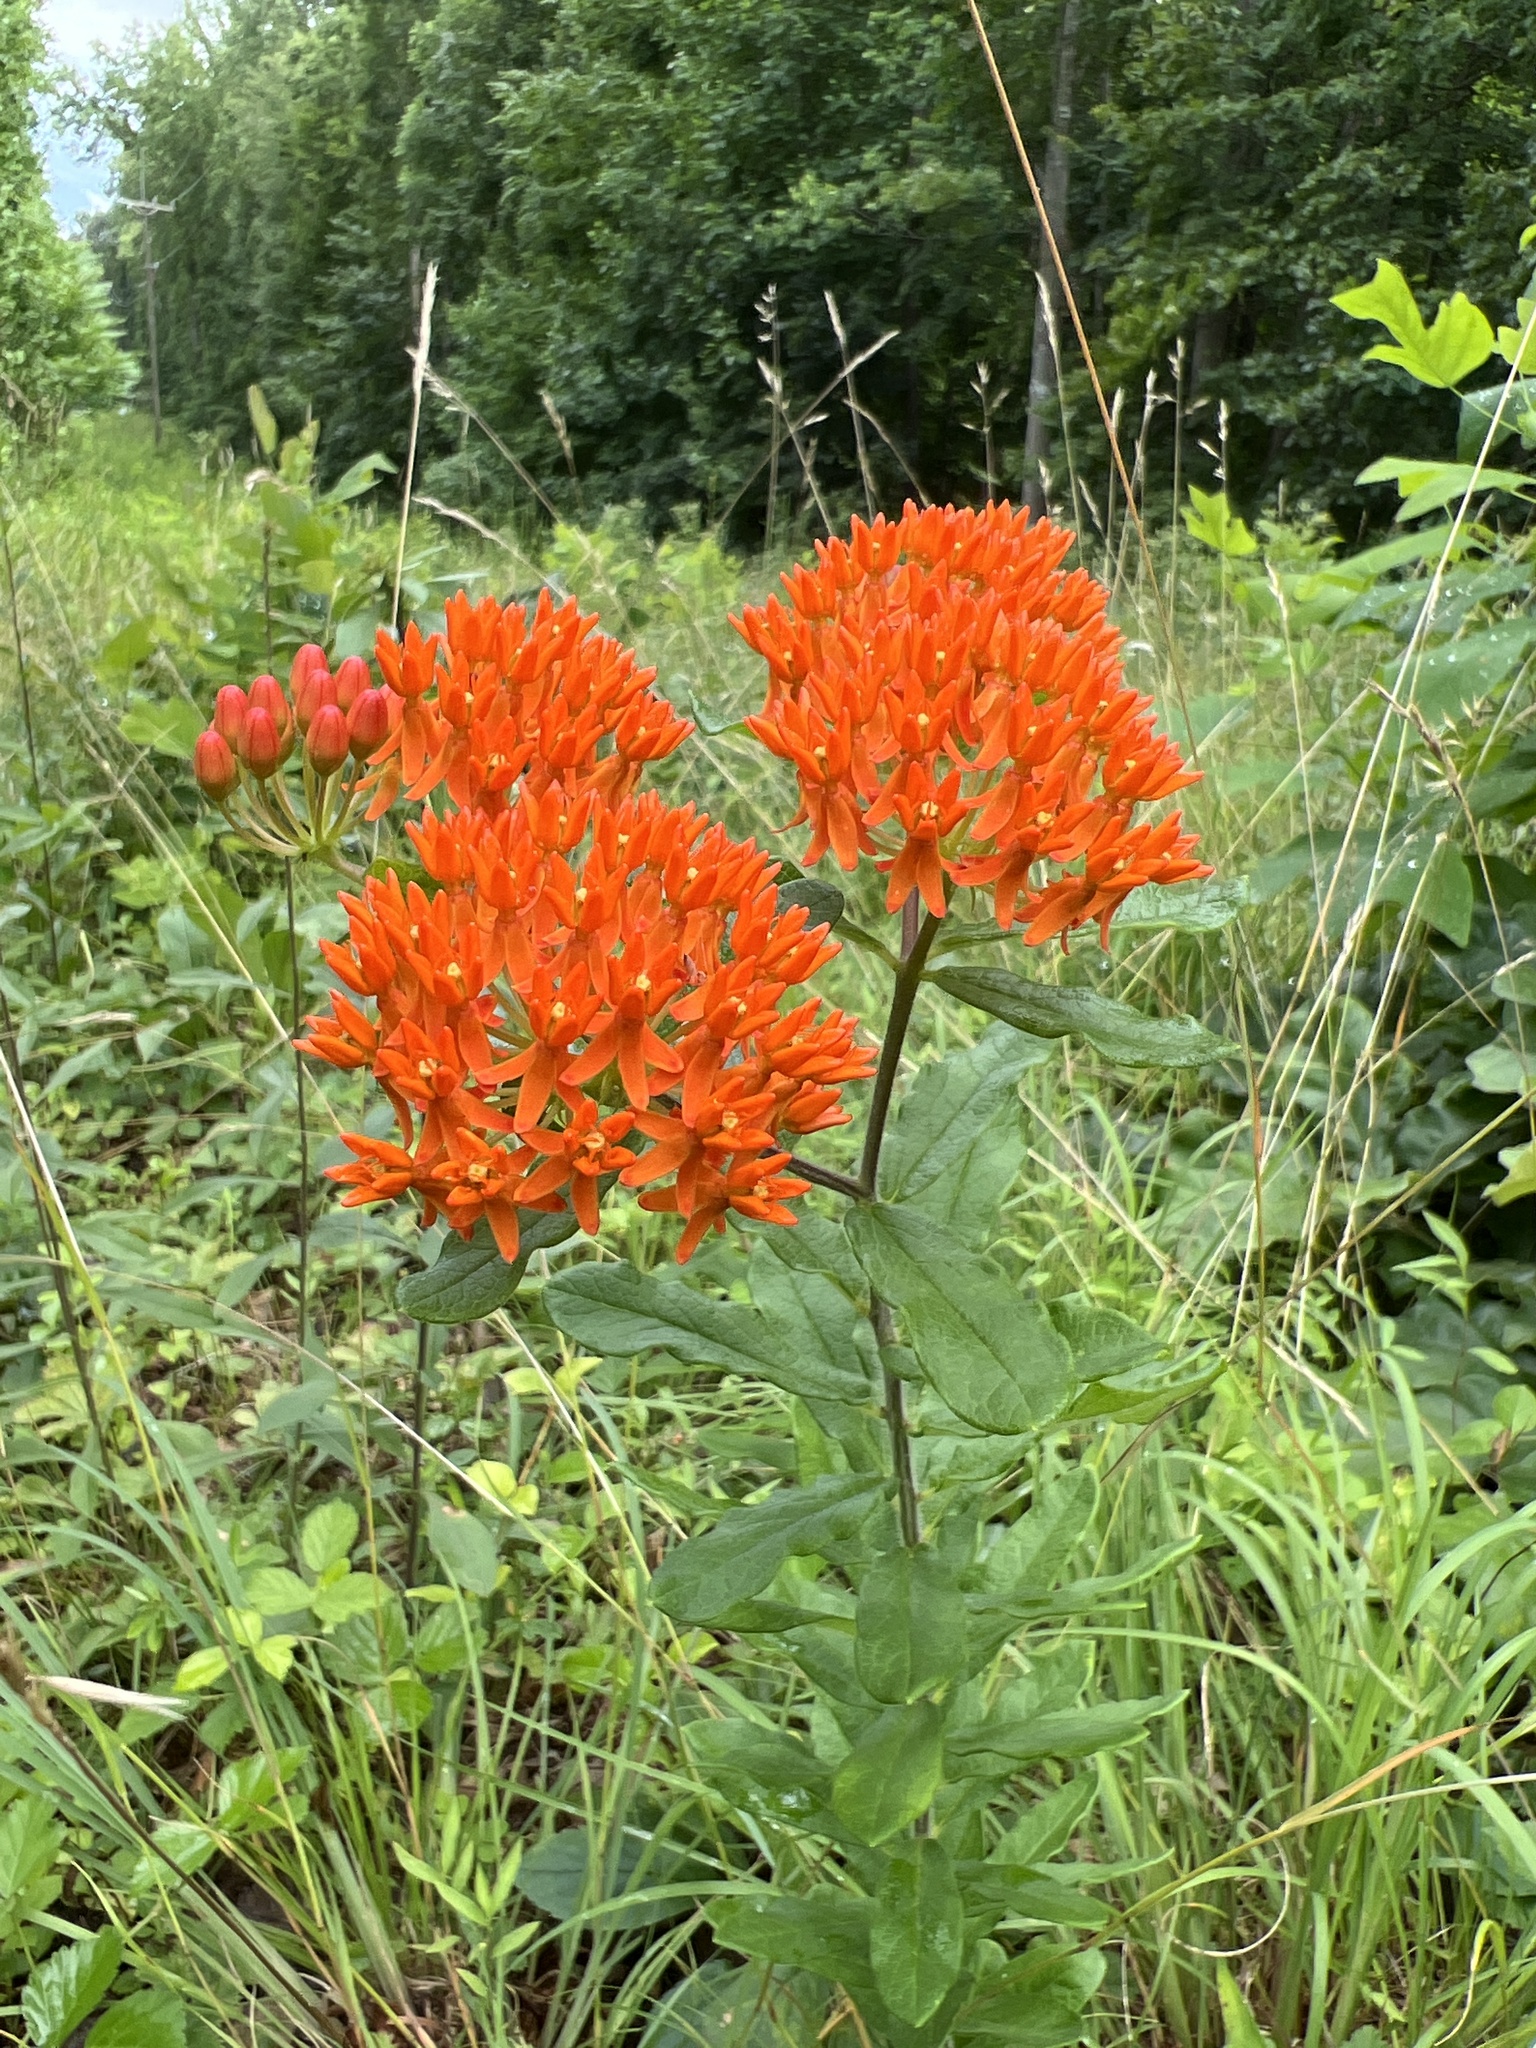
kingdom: Plantae
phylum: Tracheophyta
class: Magnoliopsida
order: Gentianales
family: Apocynaceae
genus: Asclepias
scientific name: Asclepias tuberosa
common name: Butterfly milkweed
